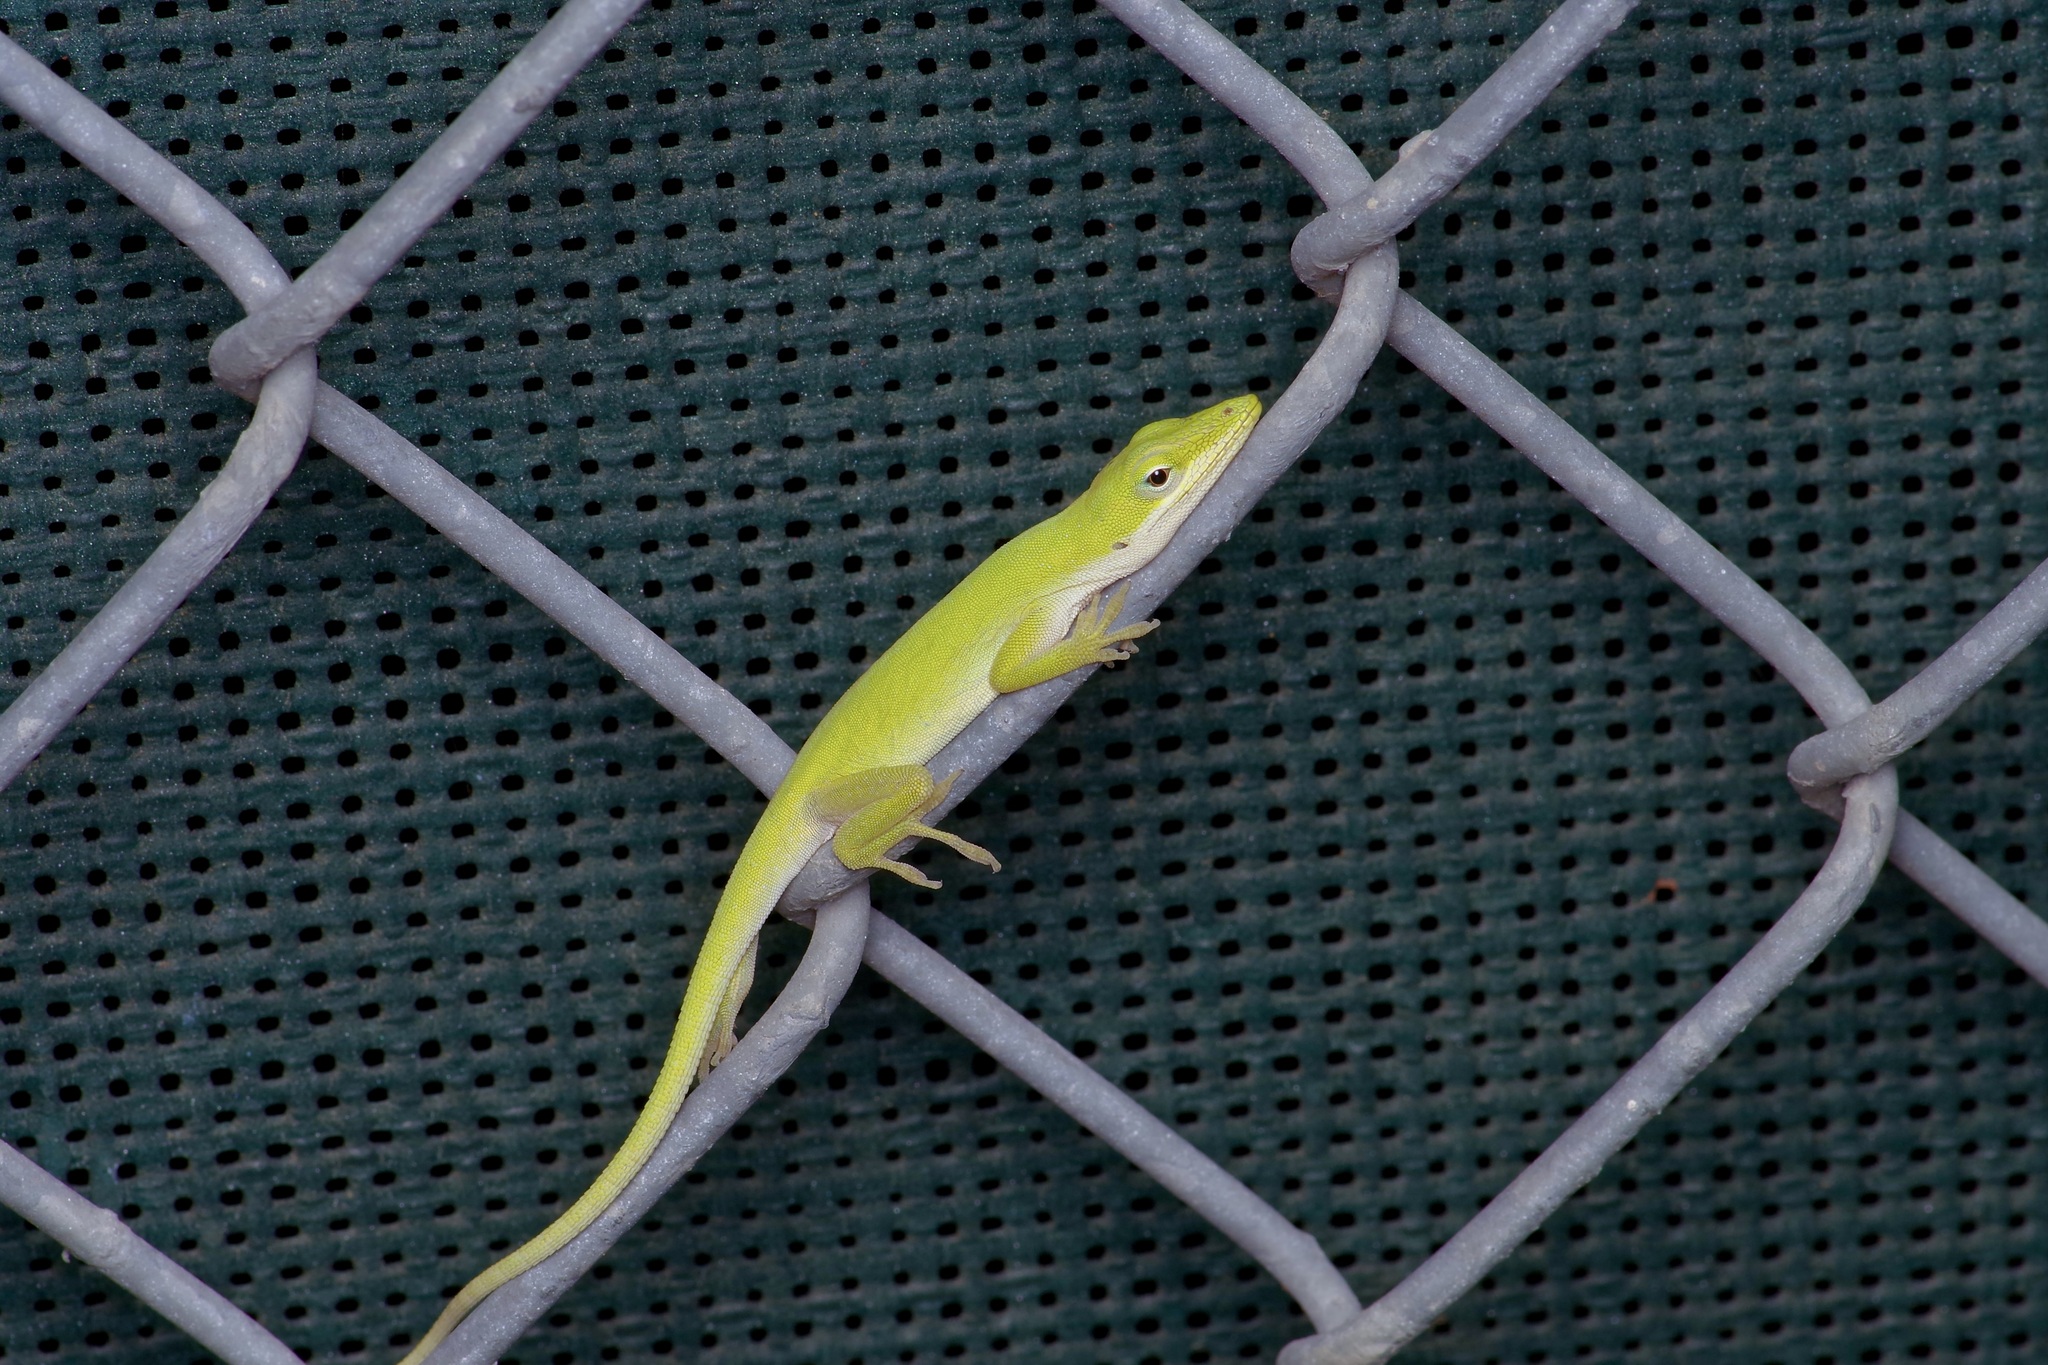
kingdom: Animalia
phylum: Chordata
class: Squamata
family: Dactyloidae
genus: Anolis
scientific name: Anolis carolinensis
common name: Green anole
